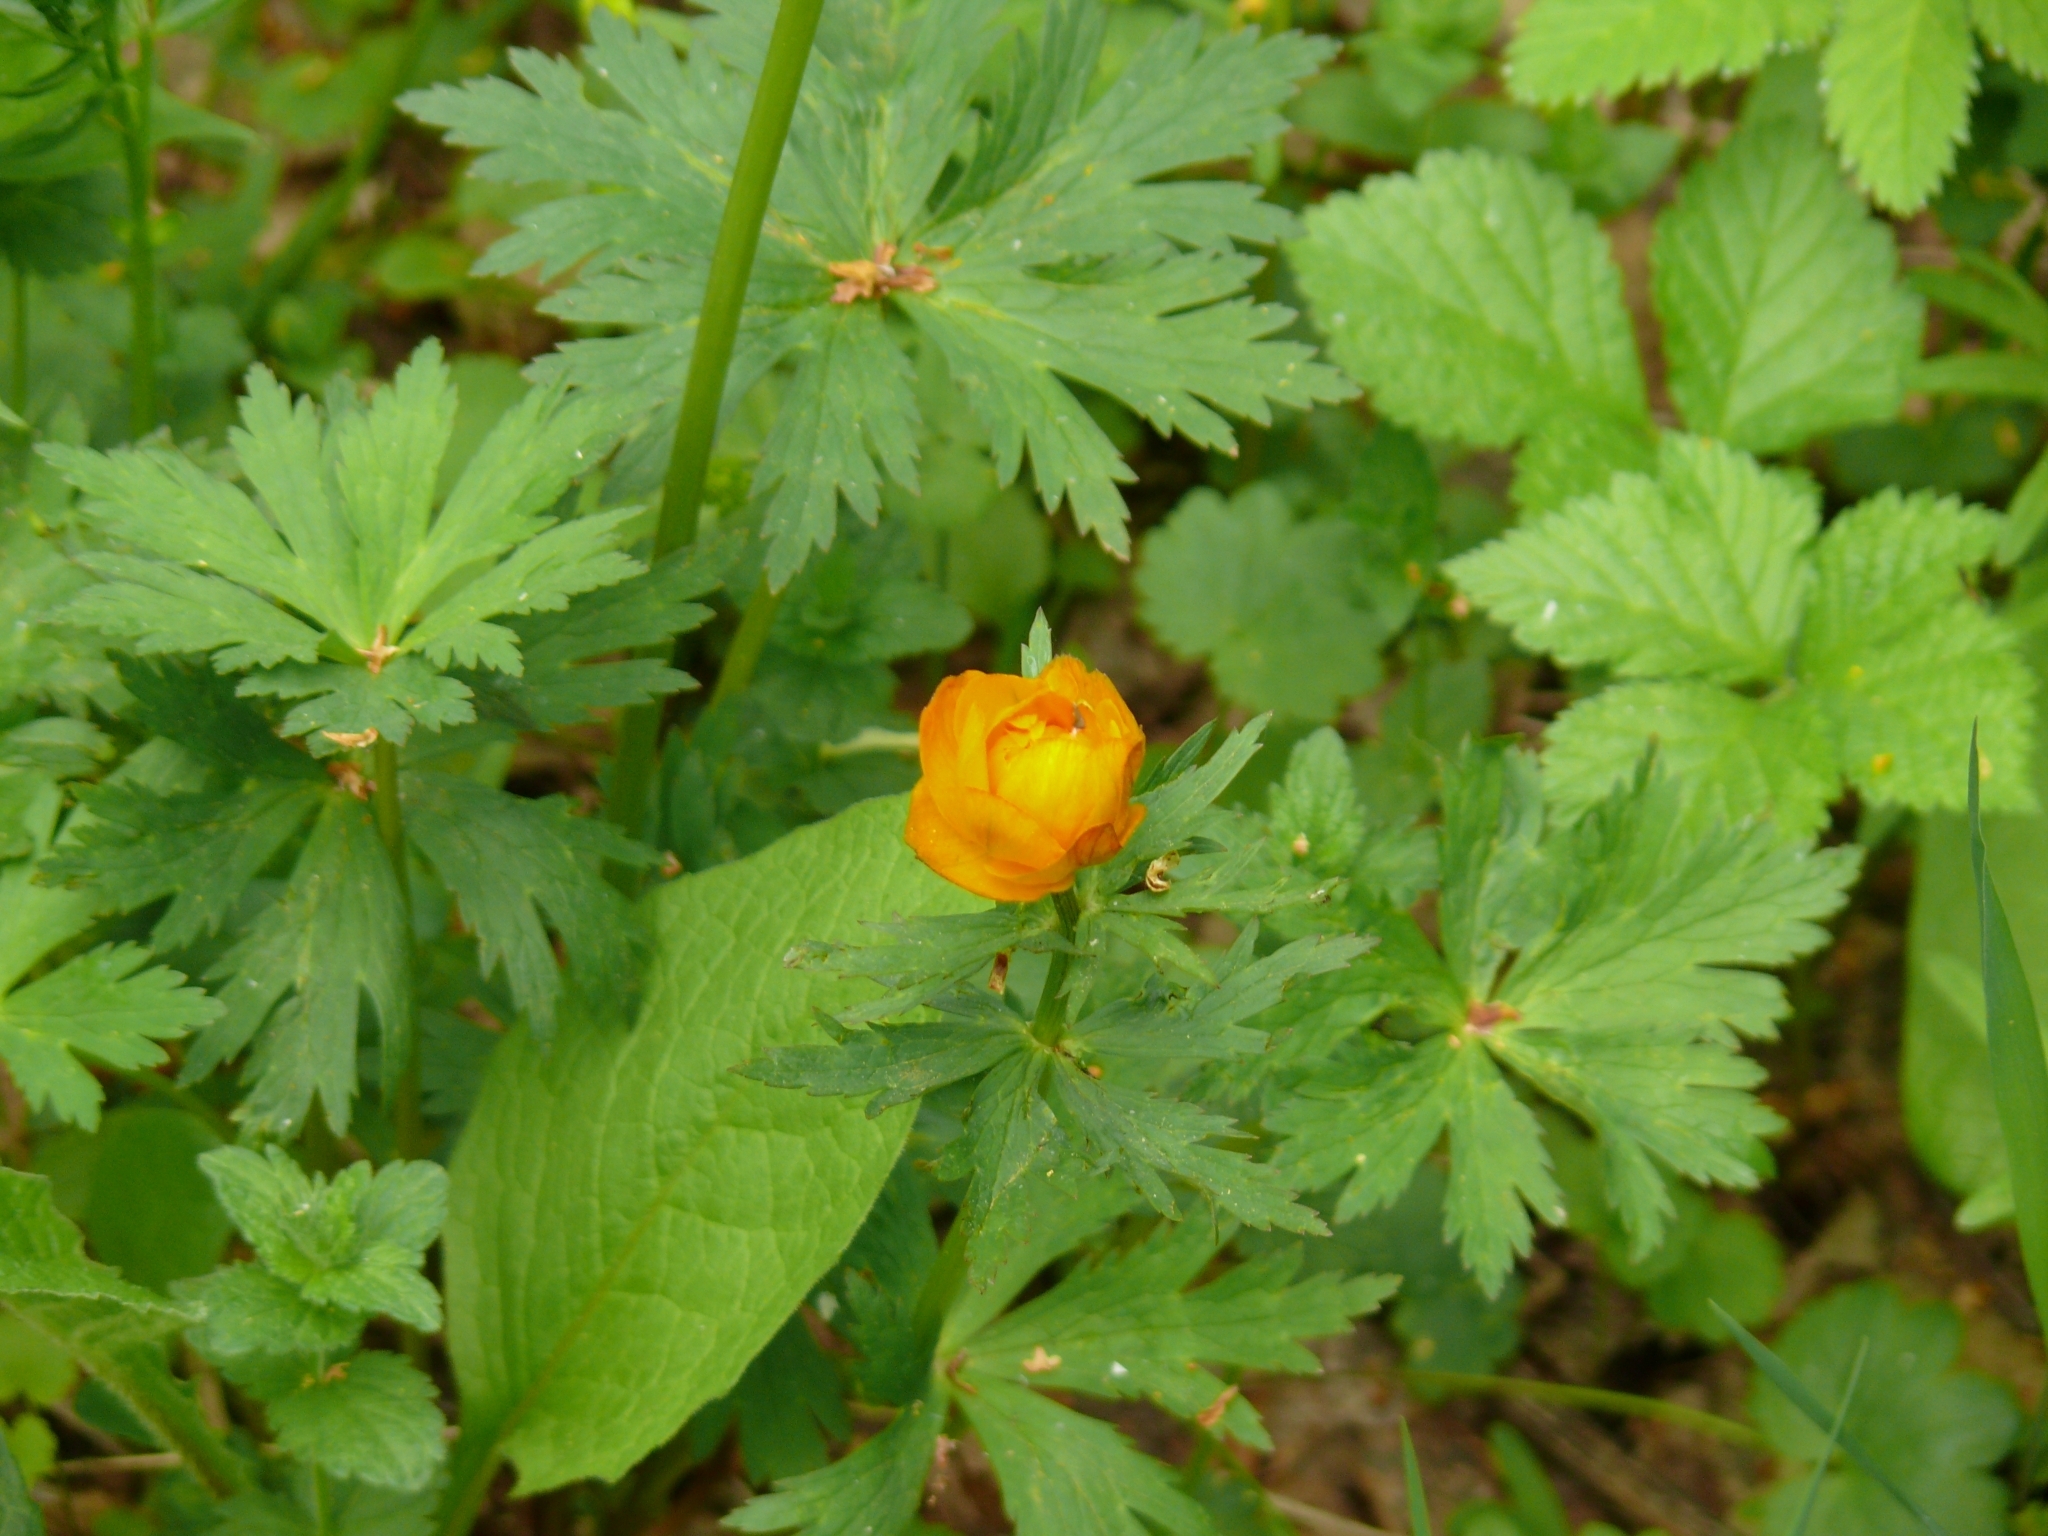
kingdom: Plantae
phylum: Tracheophyta
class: Magnoliopsida
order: Ranunculales
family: Ranunculaceae
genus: Trollius
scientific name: Trollius asiaticus
